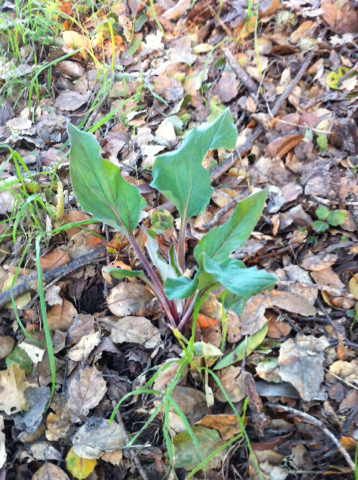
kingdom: Plantae
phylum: Tracheophyta
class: Magnoliopsida
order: Boraginales
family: Boraginaceae
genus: Adelinia
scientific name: Adelinia grande
